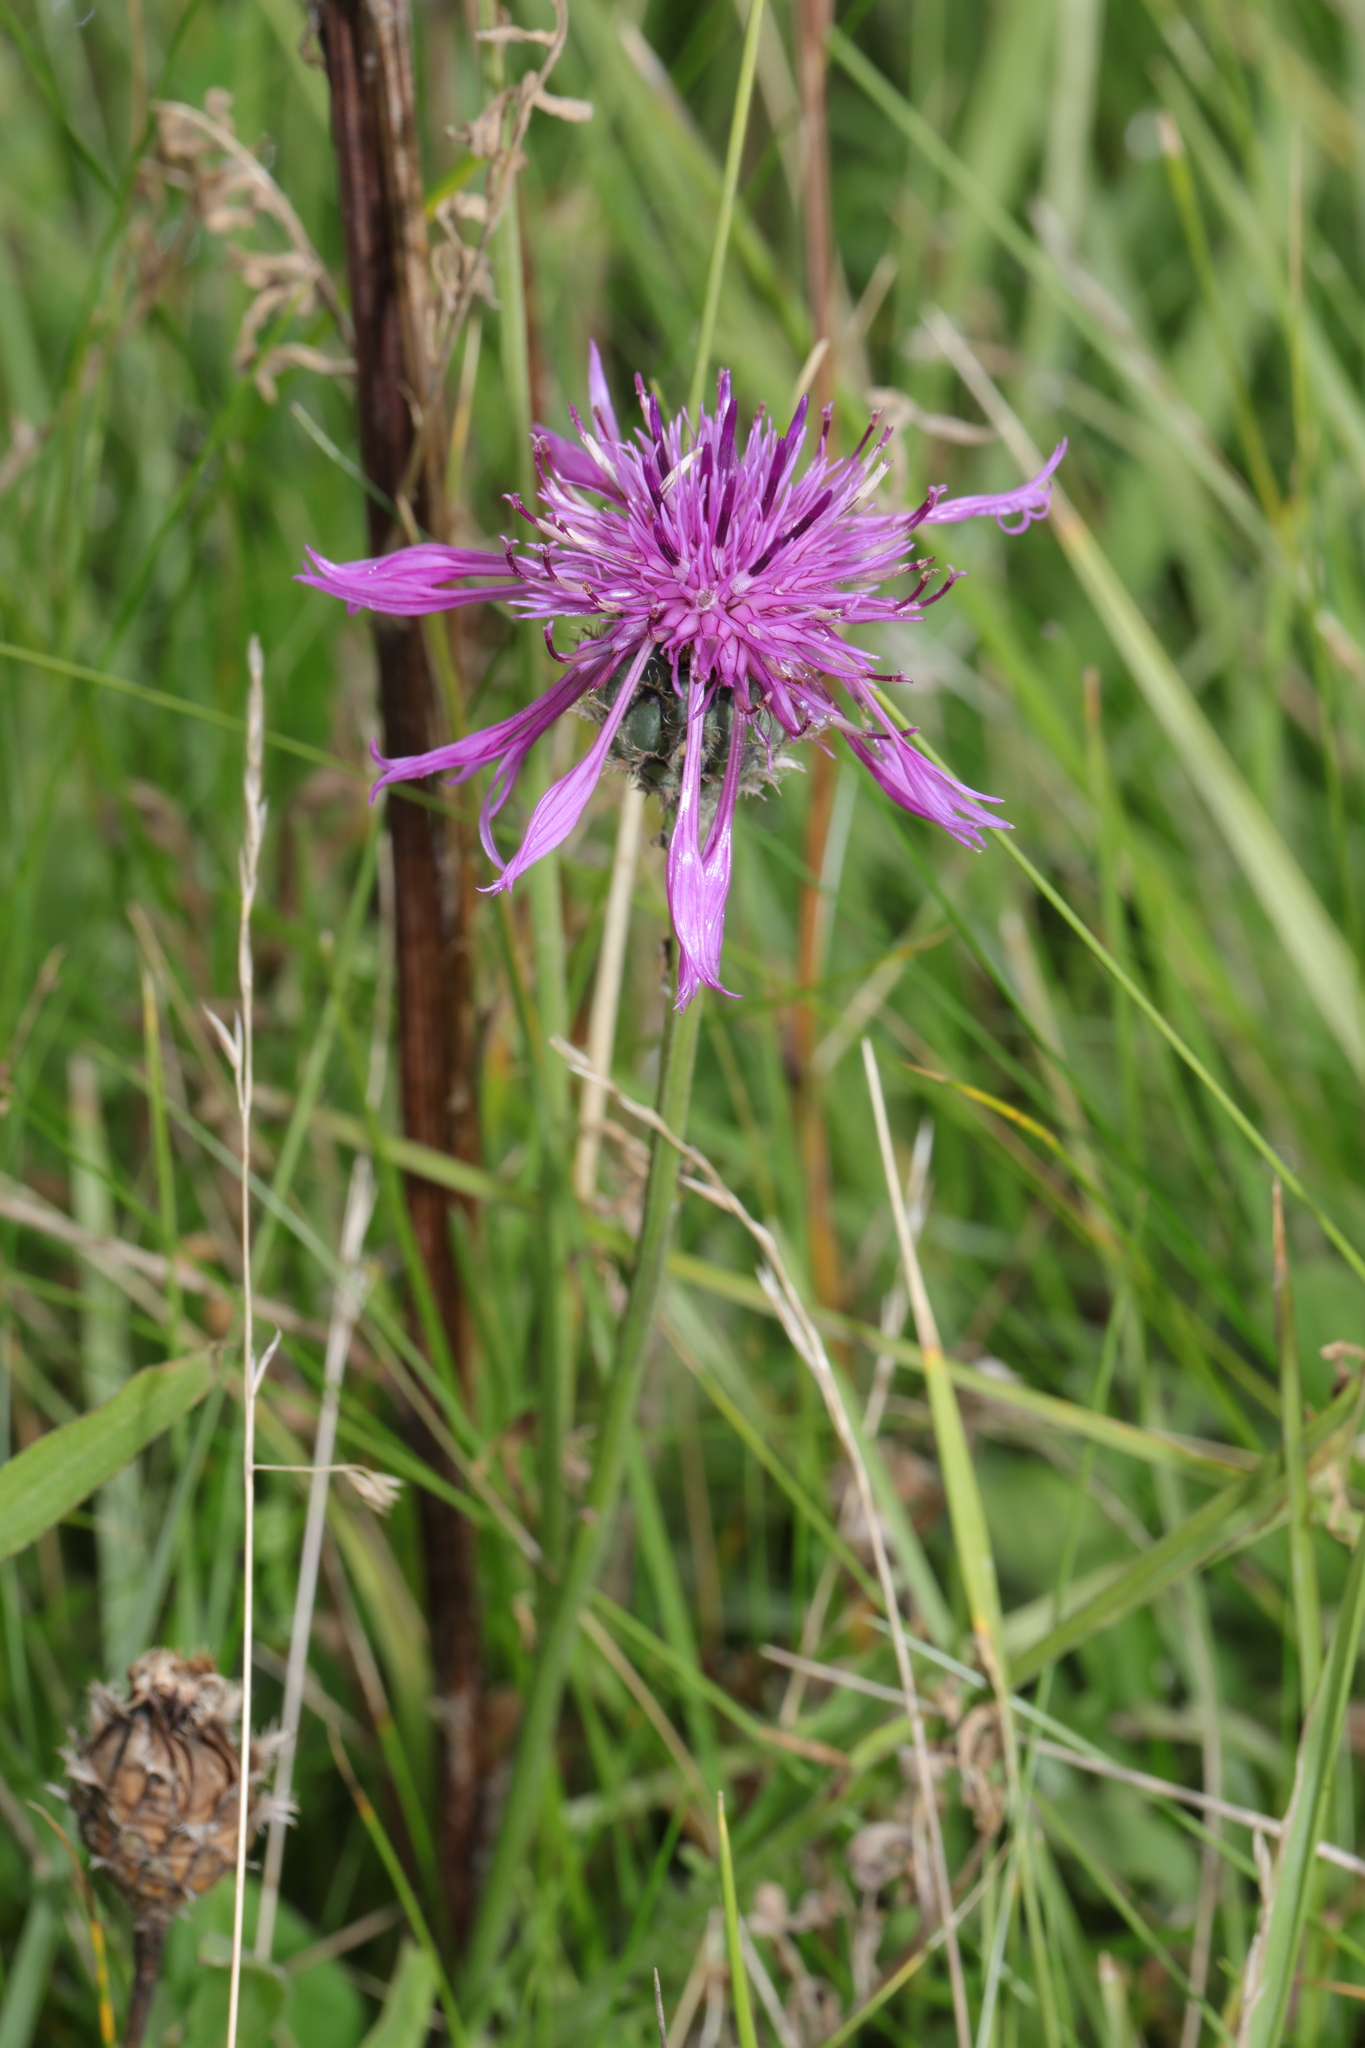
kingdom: Plantae
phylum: Tracheophyta
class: Magnoliopsida
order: Asterales
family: Asteraceae
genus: Centaurea
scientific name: Centaurea scabiosa
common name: Greater knapweed
